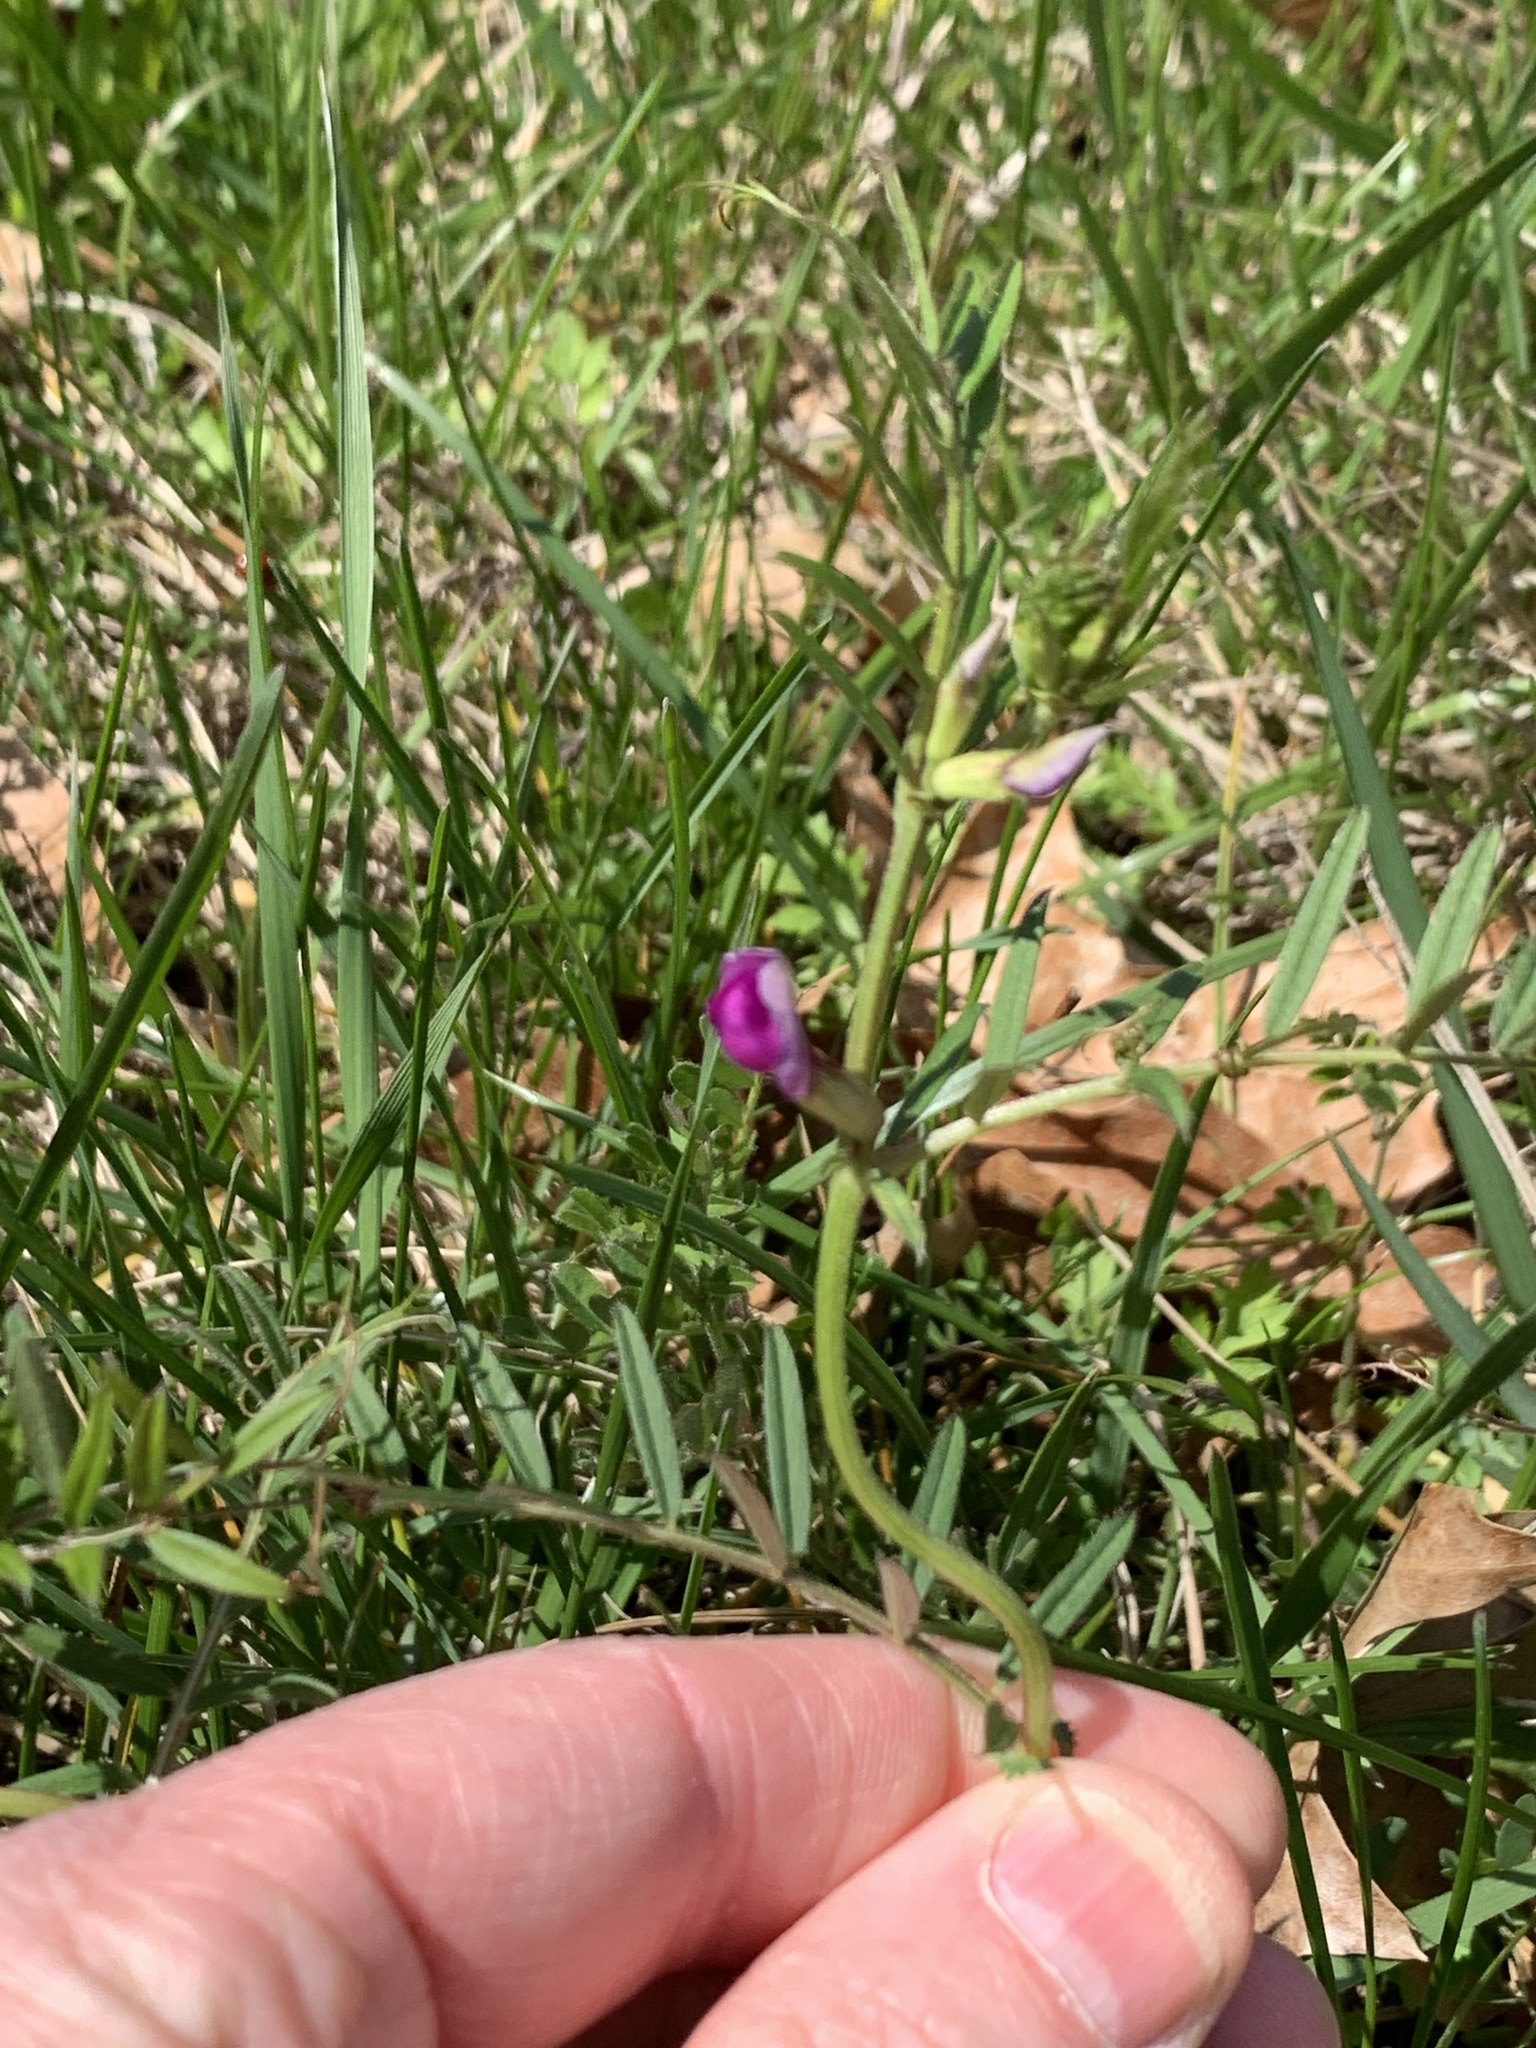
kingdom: Plantae
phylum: Tracheophyta
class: Magnoliopsida
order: Fabales
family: Fabaceae
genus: Vicia
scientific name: Vicia sativa
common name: Garden vetch
